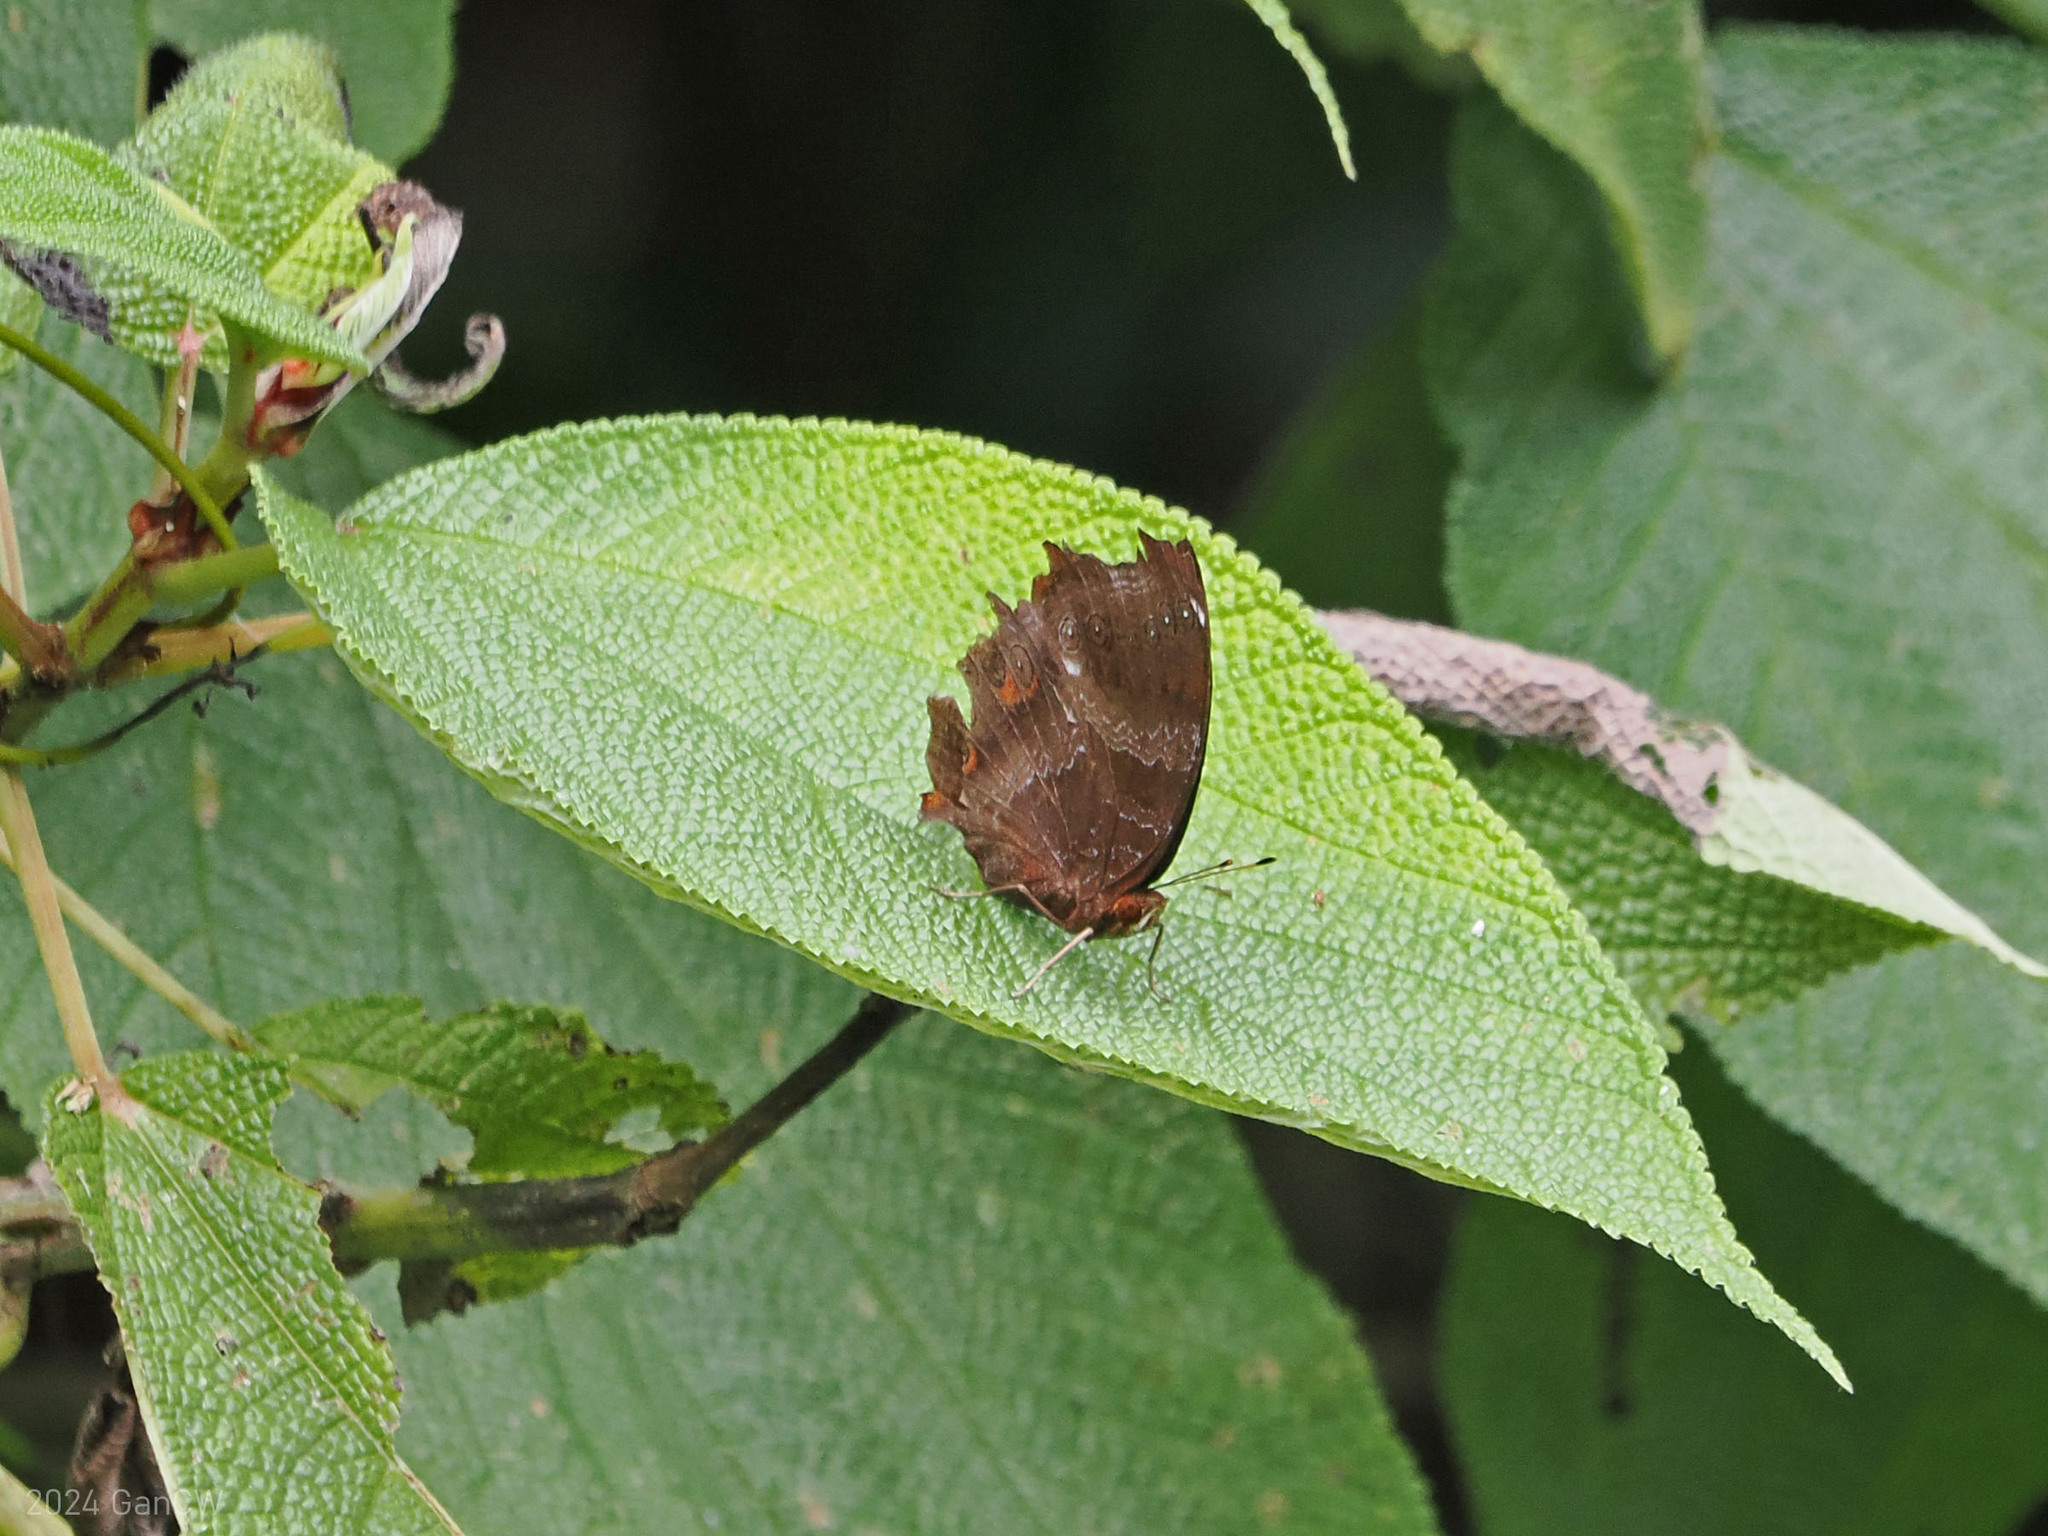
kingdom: Animalia
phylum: Arthropoda
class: Insecta
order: Lepidoptera
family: Nymphalidae
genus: Rhinopalpa
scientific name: Rhinopalpa polynice
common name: Wizard
